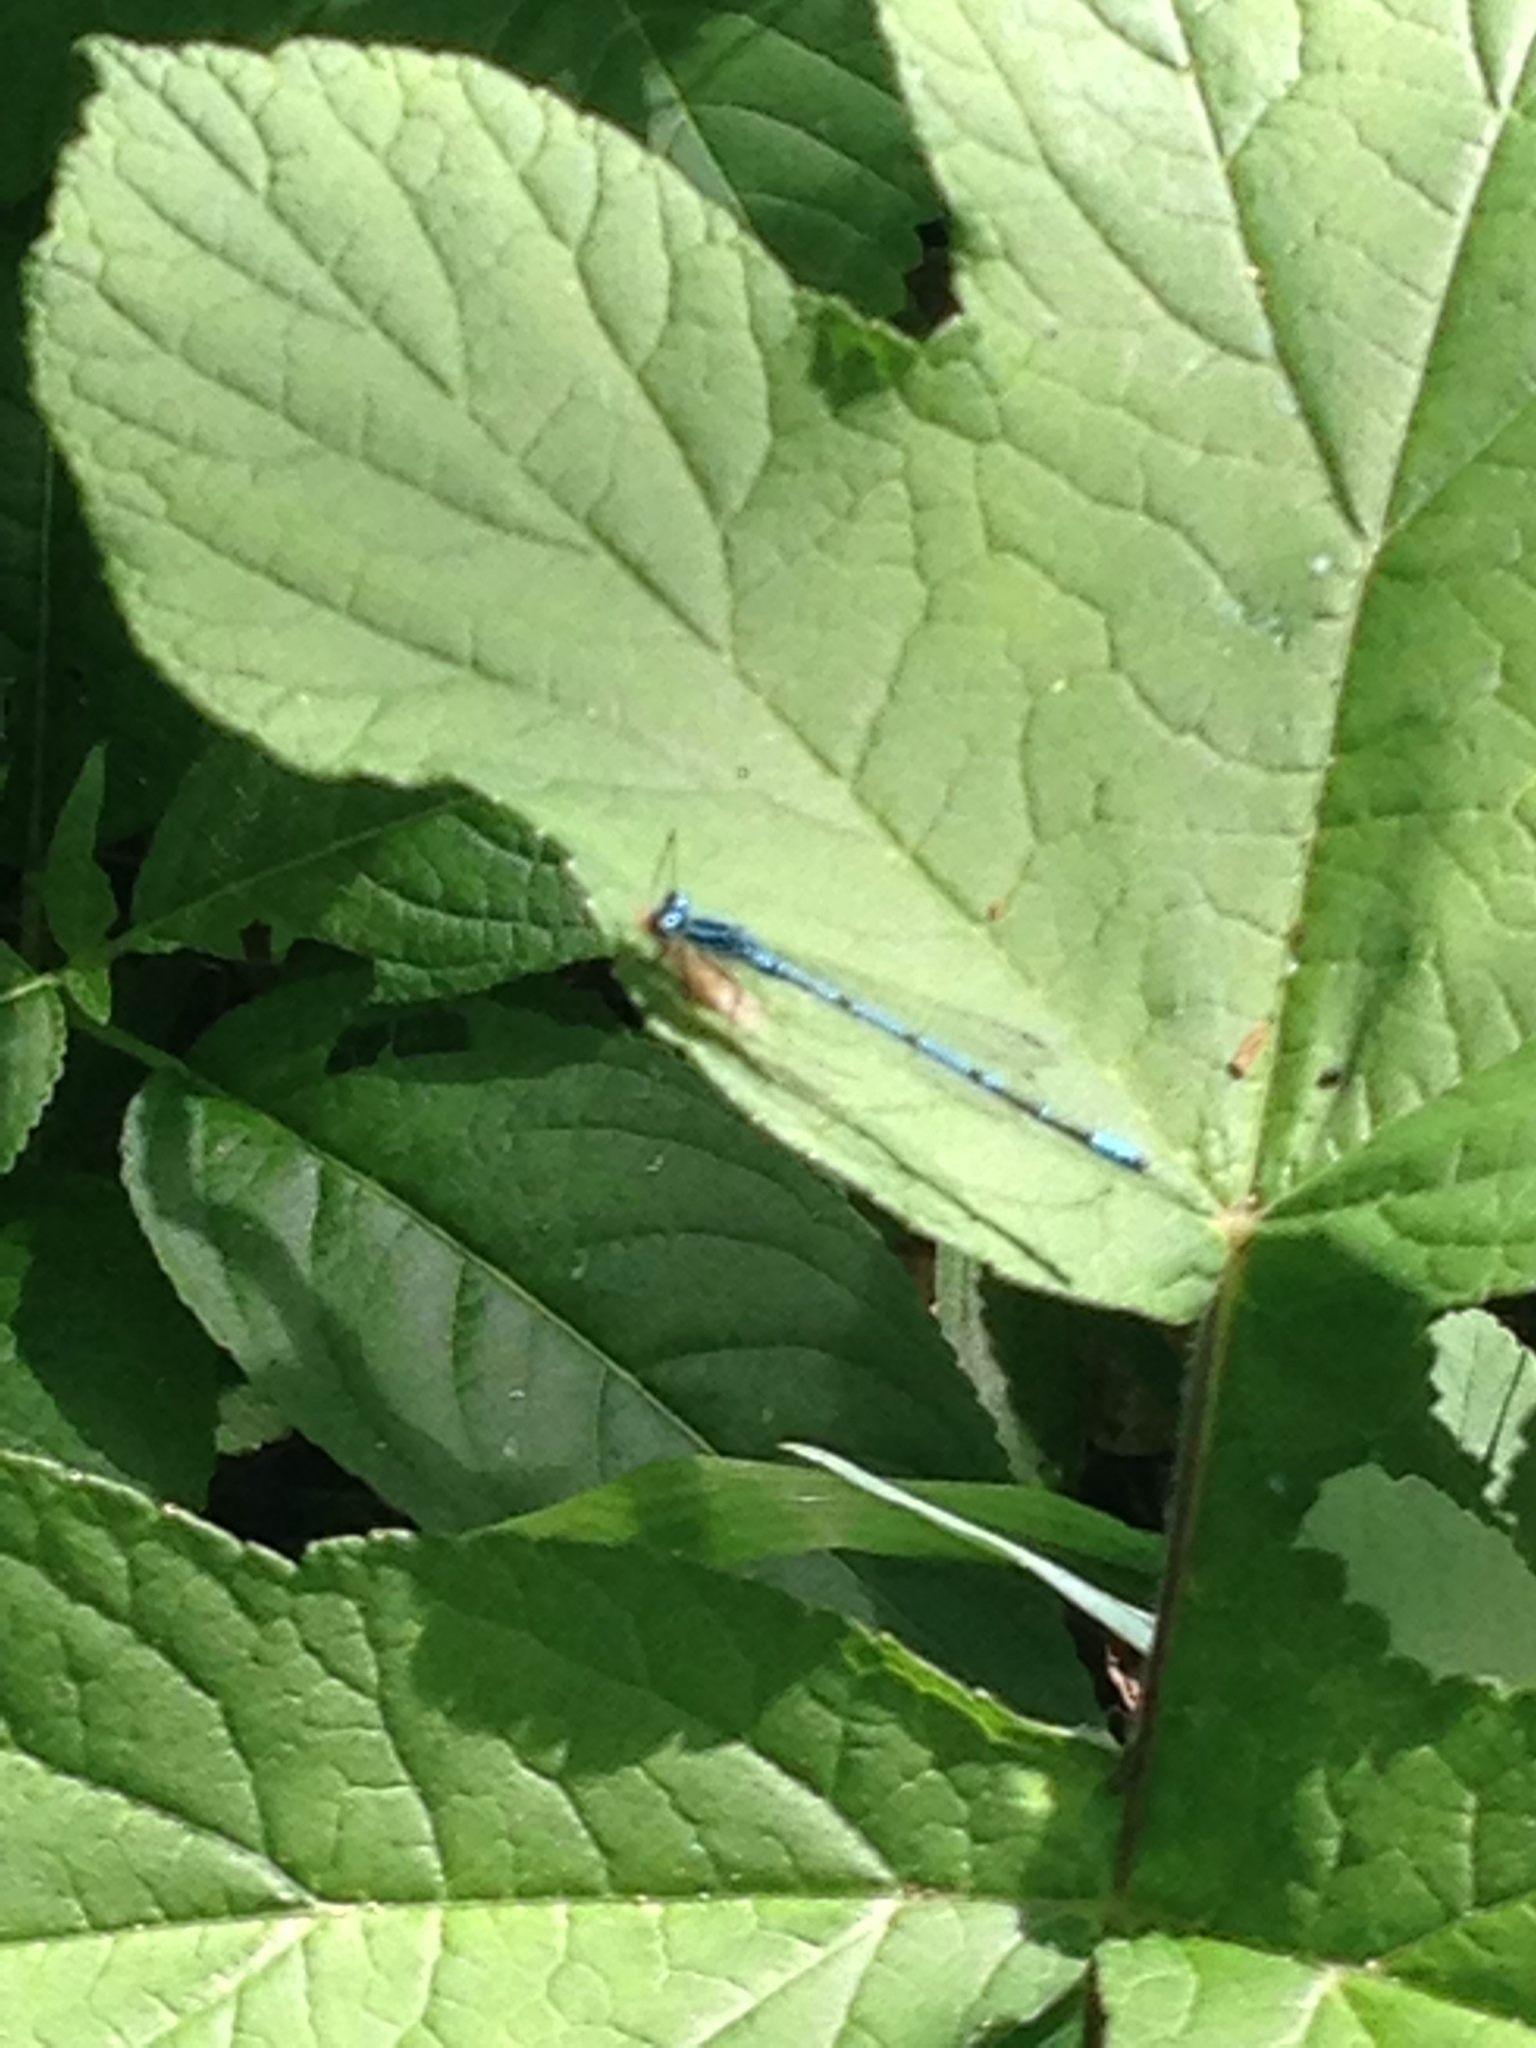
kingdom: Animalia
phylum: Arthropoda
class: Insecta
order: Odonata
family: Coenagrionidae
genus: Coenagrion
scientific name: Coenagrion puella
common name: Azure damselfly
